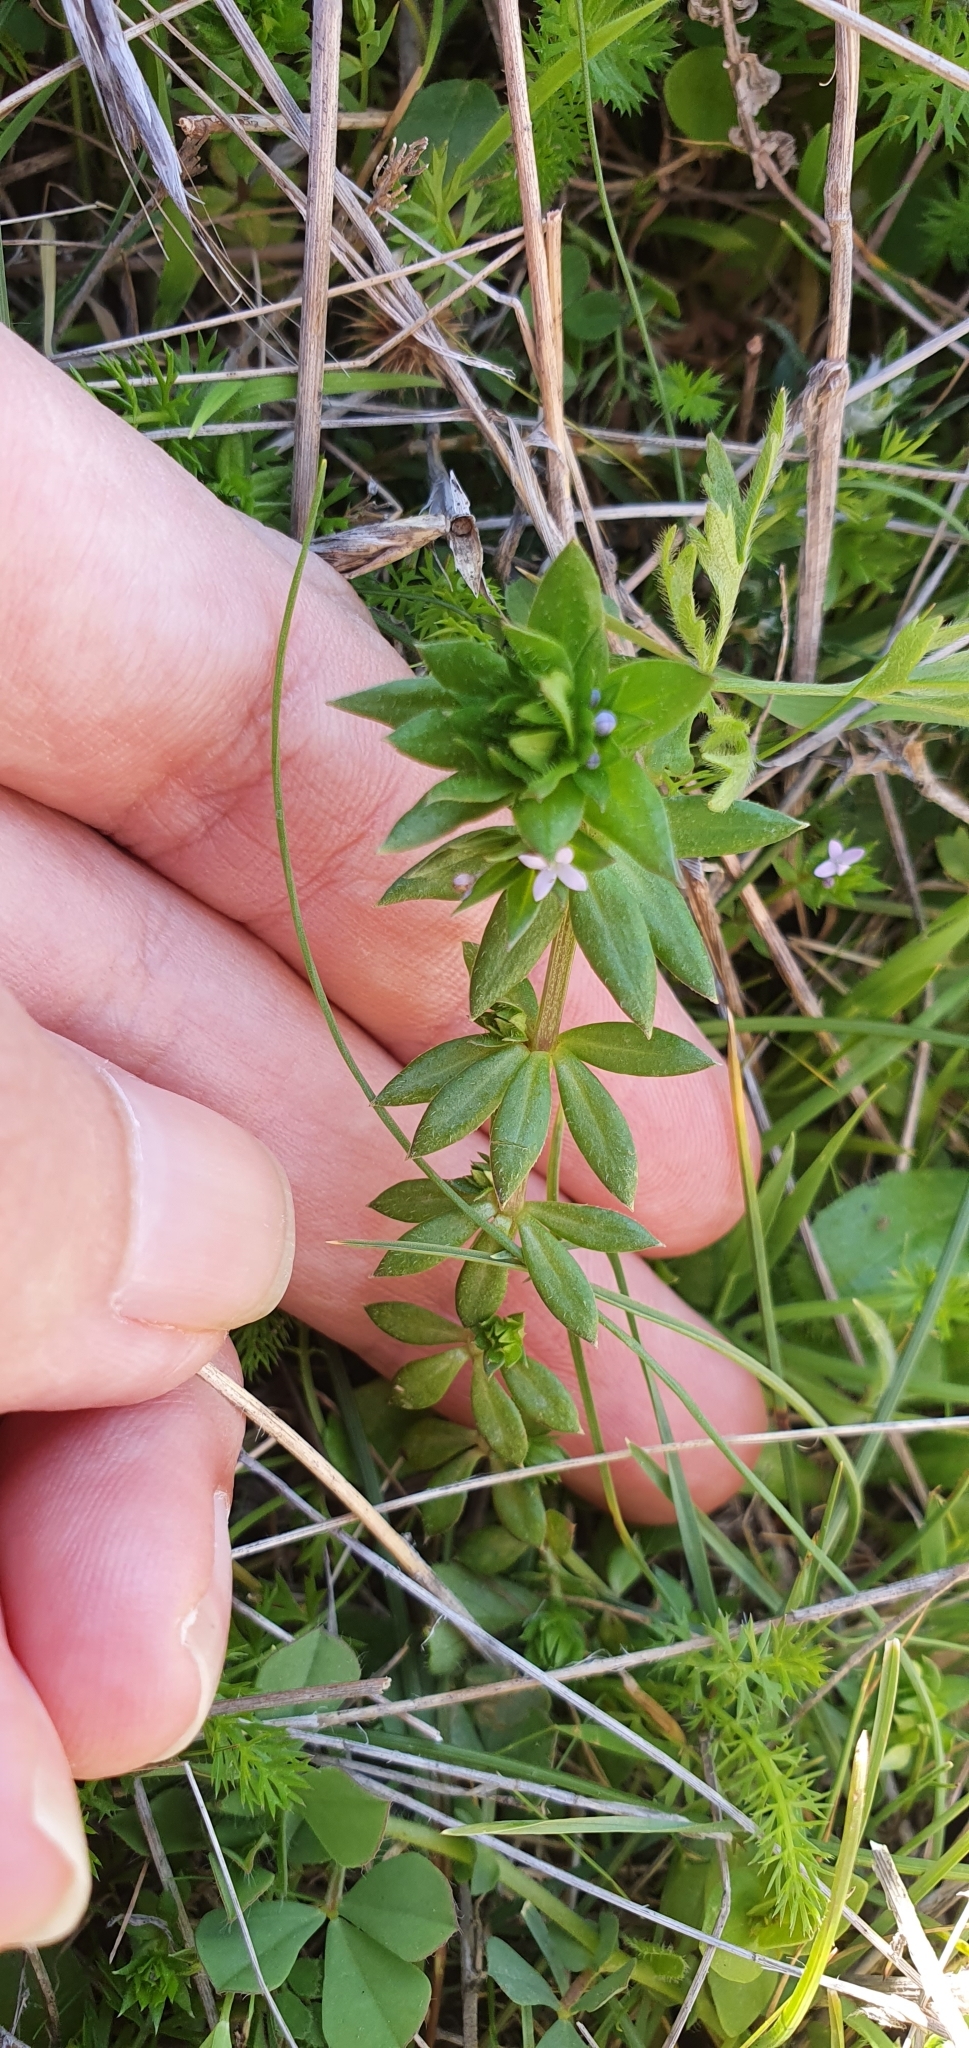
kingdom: Plantae
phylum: Tracheophyta
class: Magnoliopsida
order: Gentianales
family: Rubiaceae
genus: Sherardia
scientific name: Sherardia arvensis
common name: Field madder
